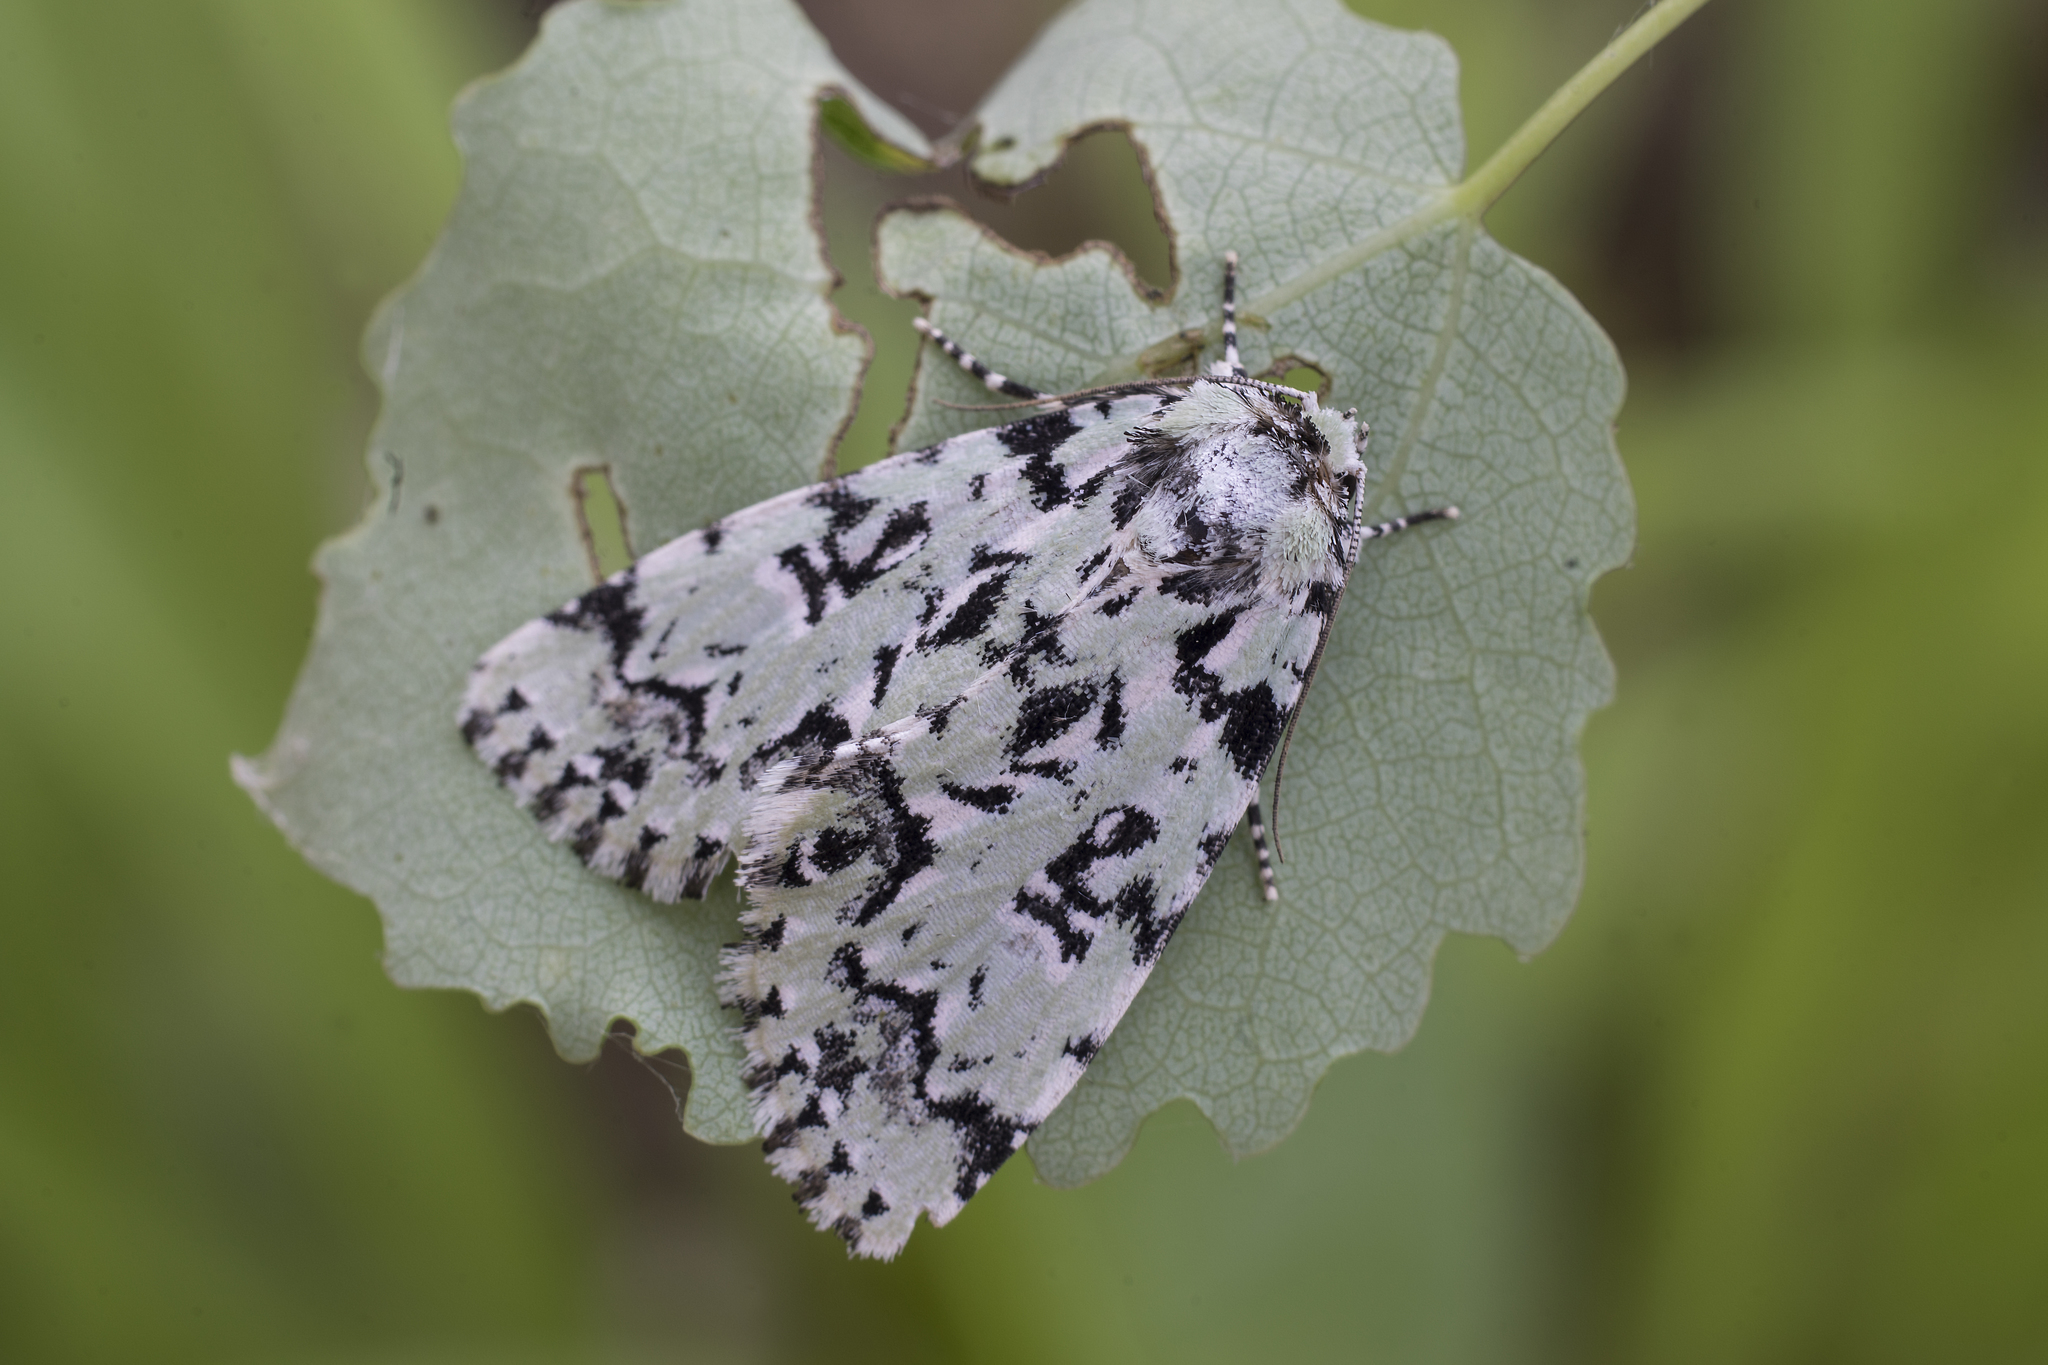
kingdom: Animalia
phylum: Arthropoda
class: Insecta
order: Lepidoptera
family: Noctuidae
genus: Moma
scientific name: Moma alpium
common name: Scarce merveille du jour
